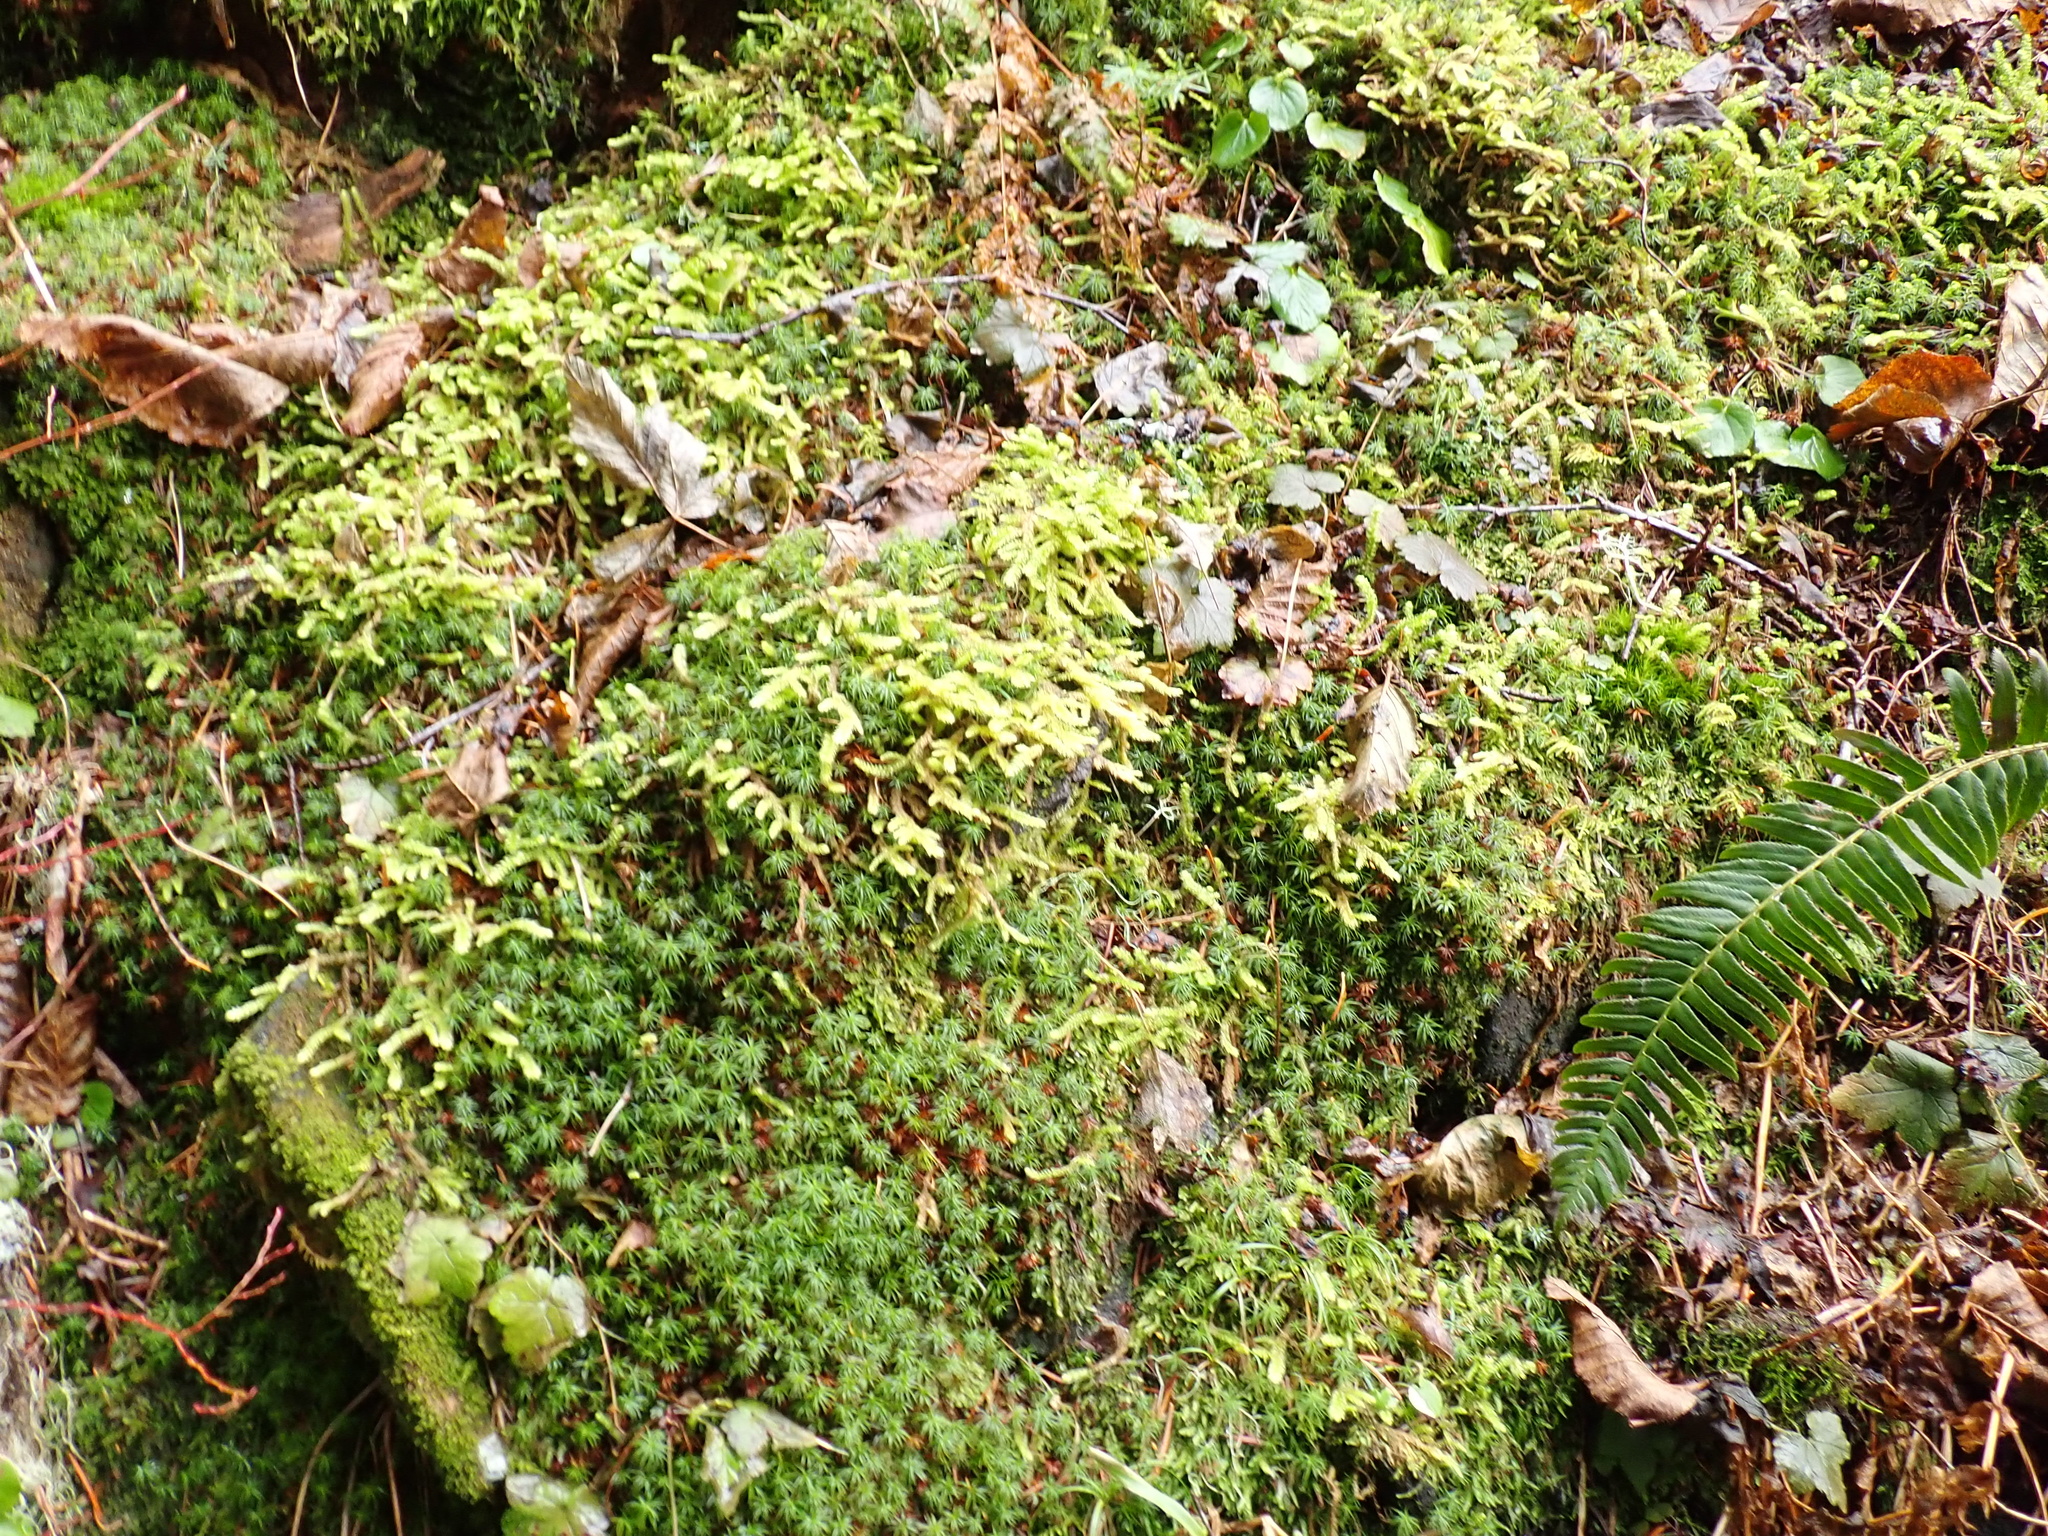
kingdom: Plantae
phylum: Bryophyta
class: Bryopsida
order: Hypnales
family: Hylocomiaceae
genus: Rhytidiopsis
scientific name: Rhytidiopsis robusta
